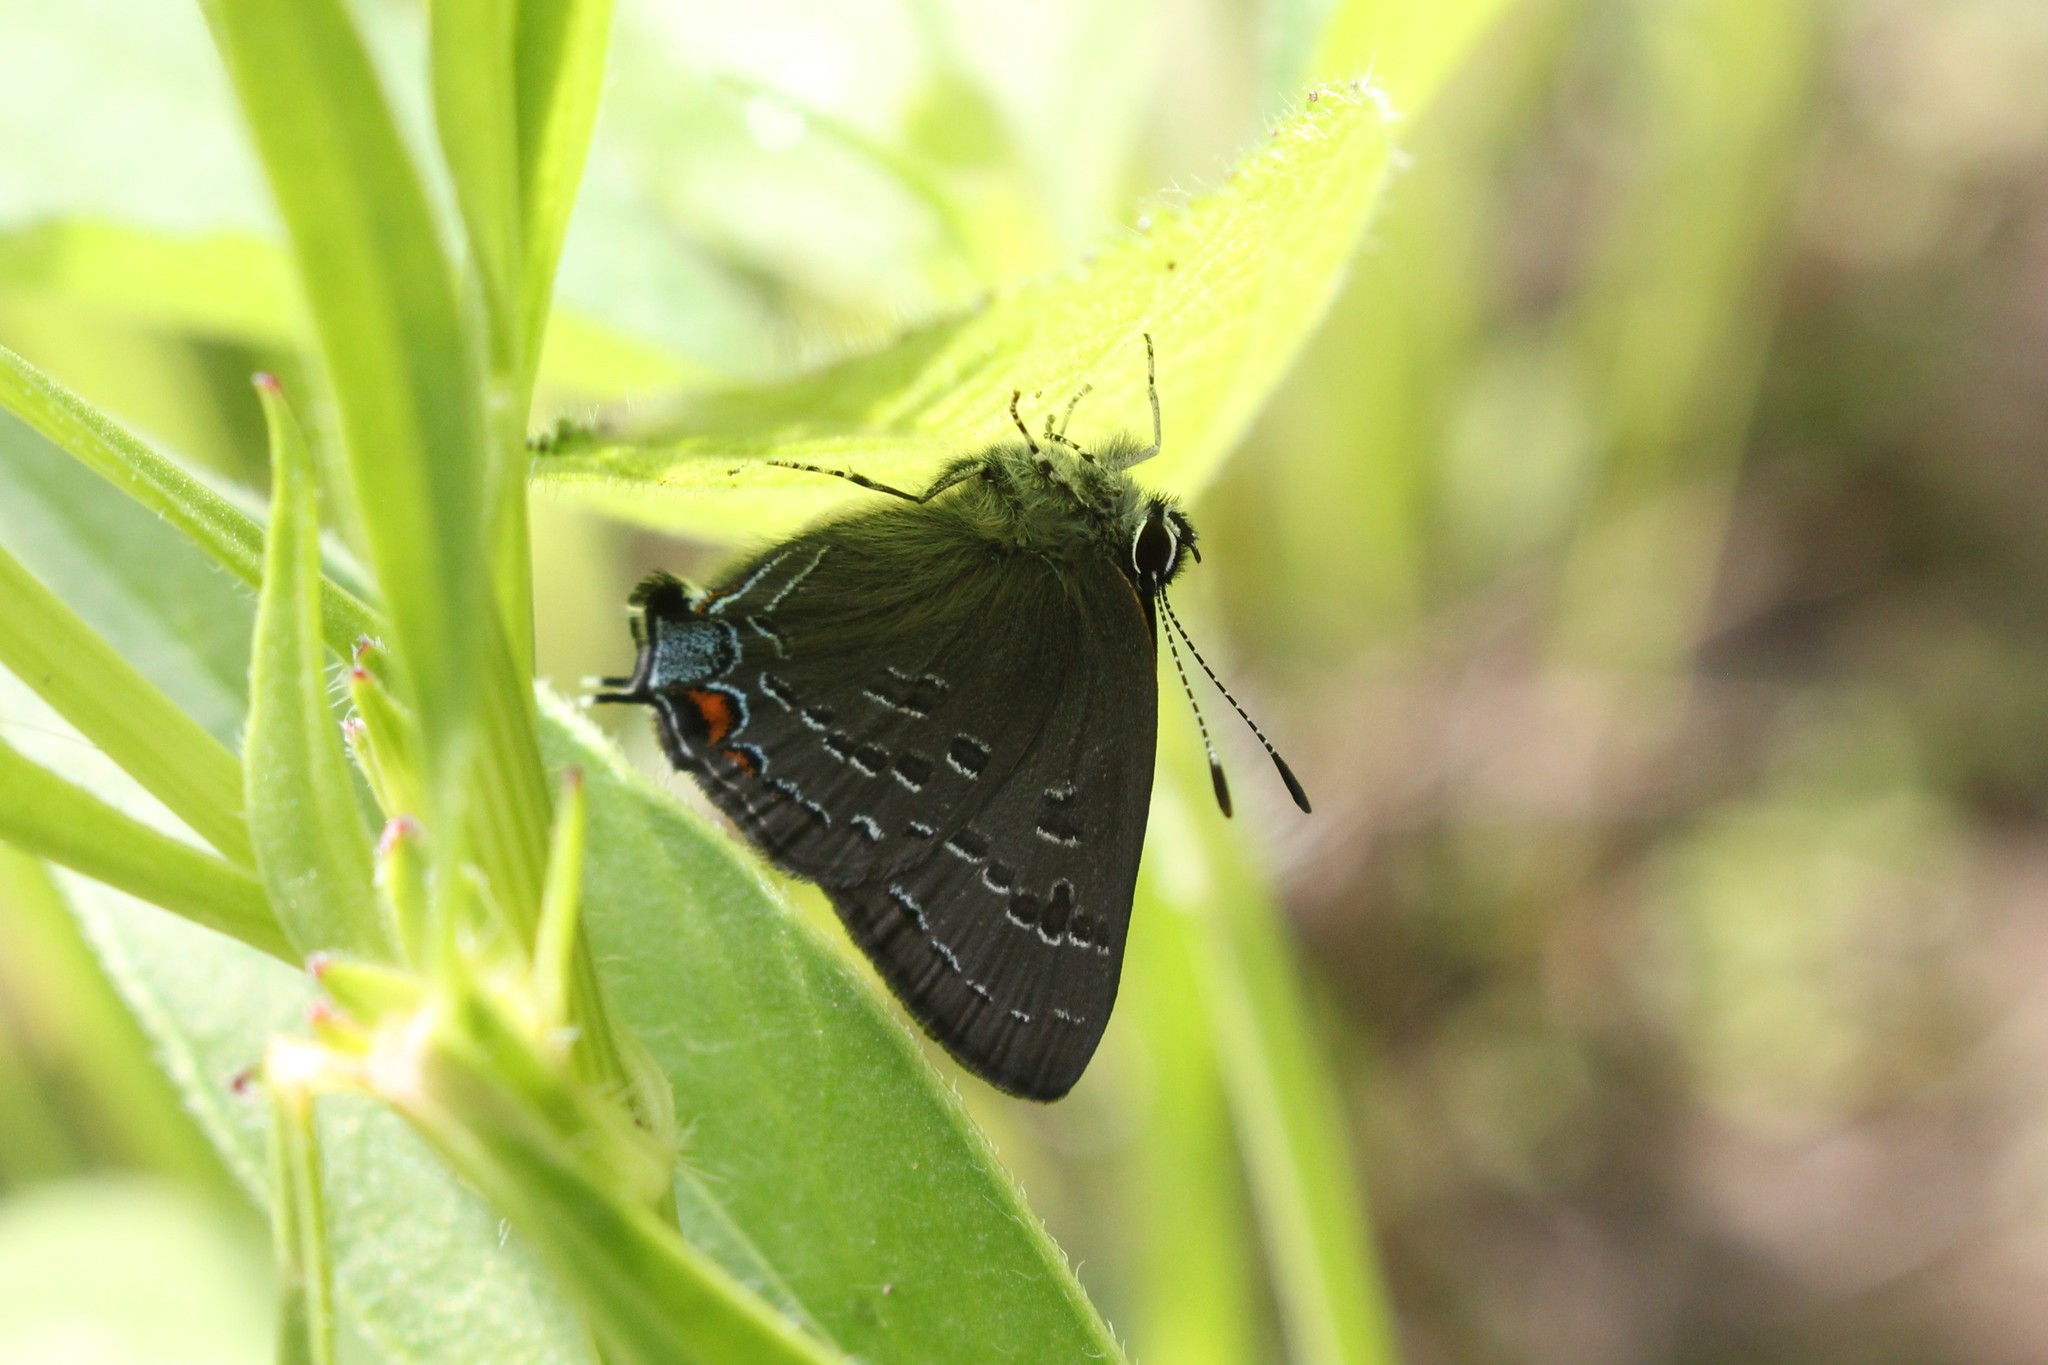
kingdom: Animalia
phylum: Arthropoda
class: Insecta
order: Lepidoptera
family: Lycaenidae
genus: Satyrium
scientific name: Satyrium calanus
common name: Banded hairstreak
